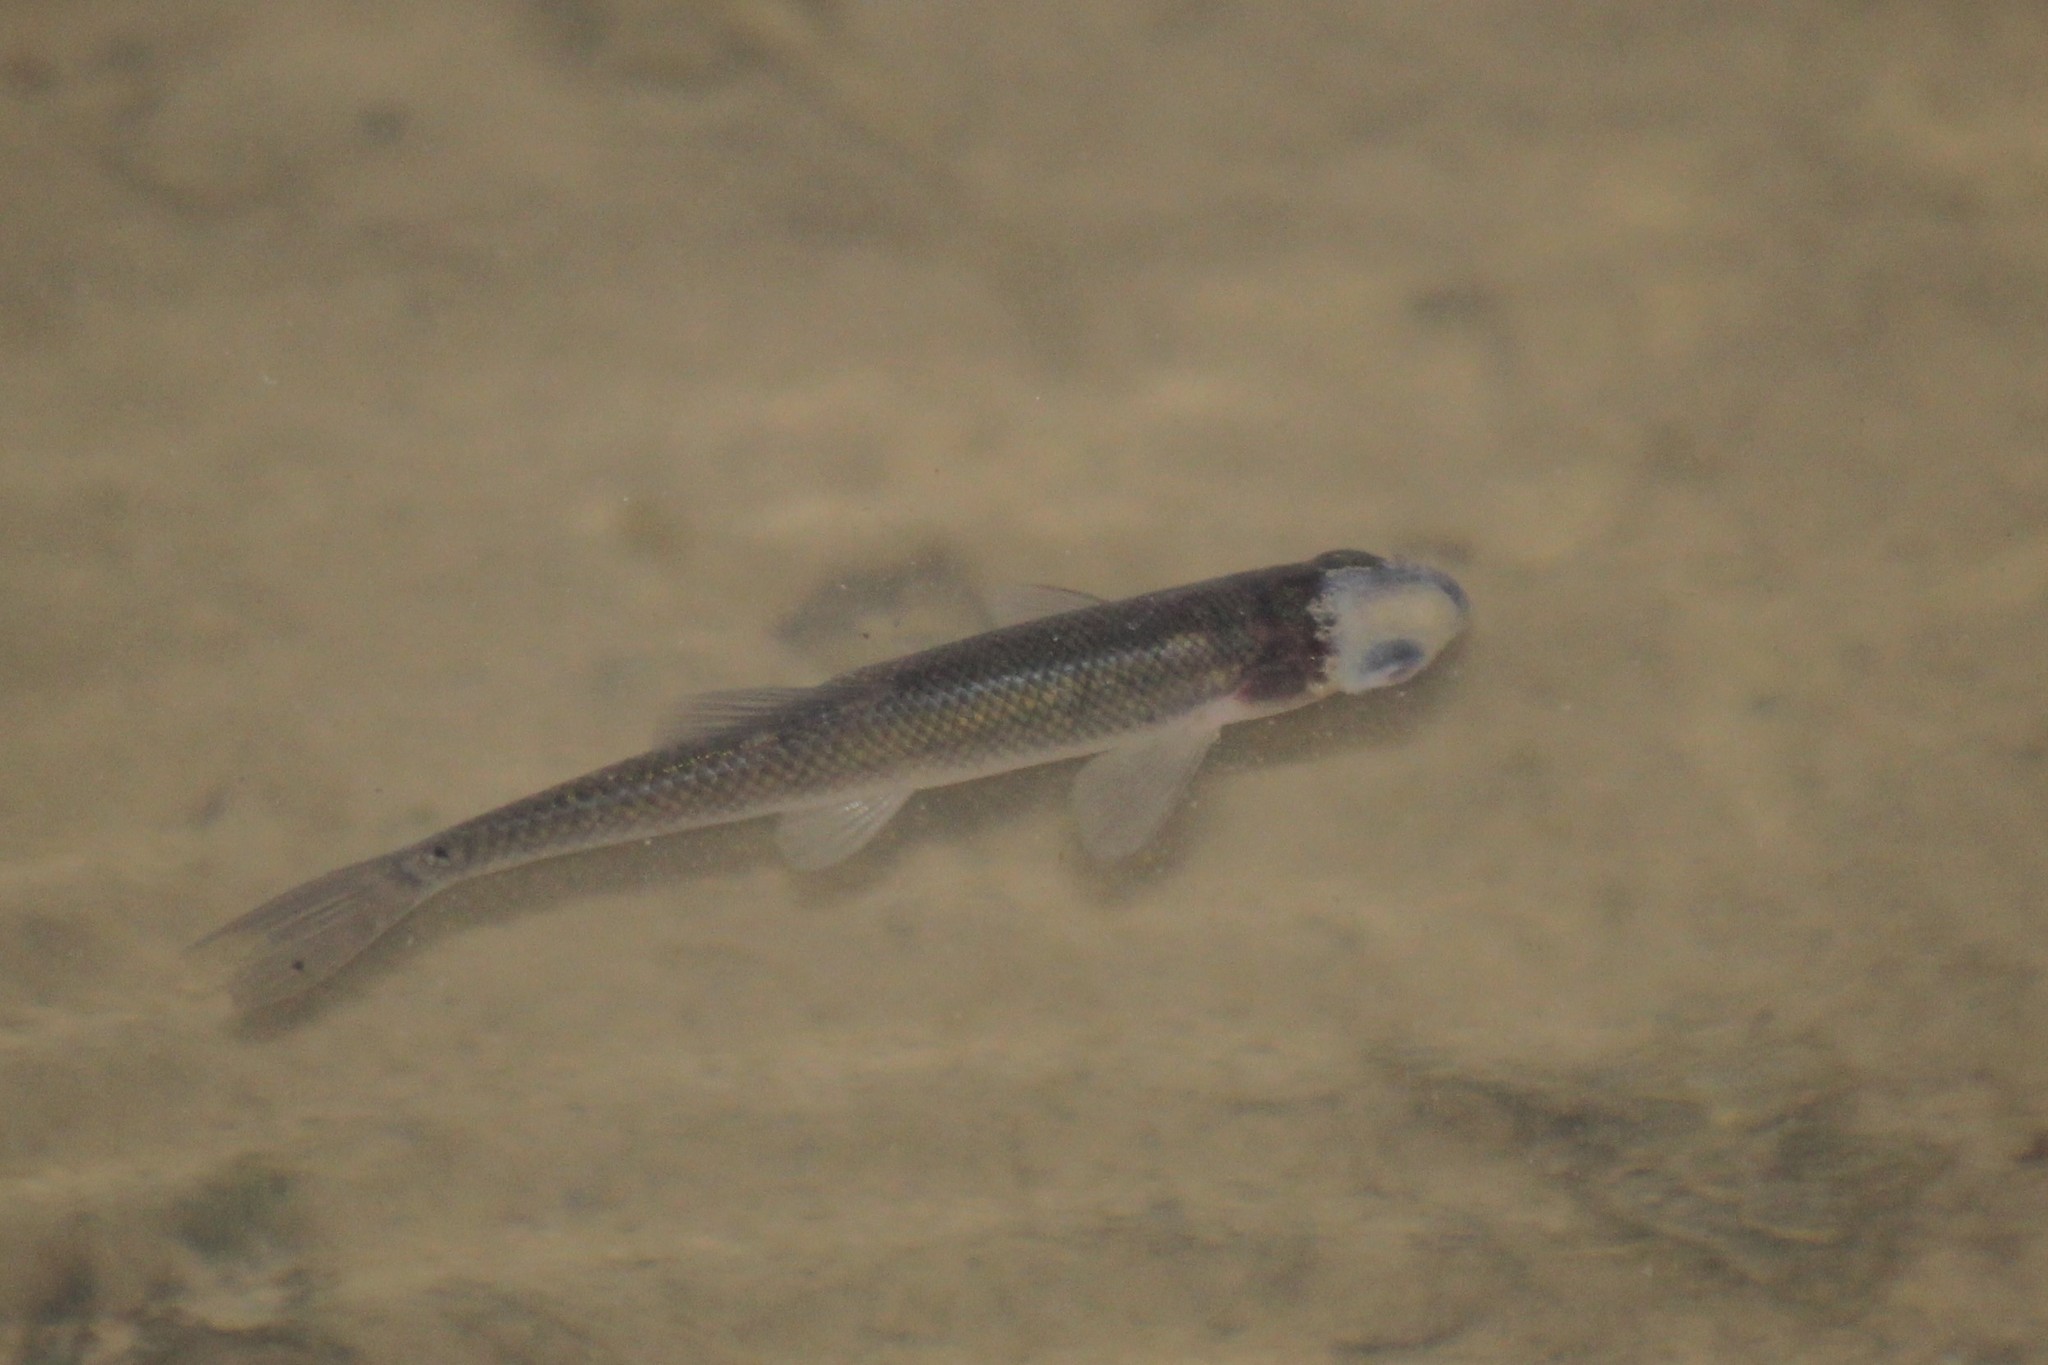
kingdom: Animalia
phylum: Chordata
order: Cypriniformes
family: Cyprinidae
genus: Pimephales
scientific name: Pimephales promelas
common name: Fathead minnow
